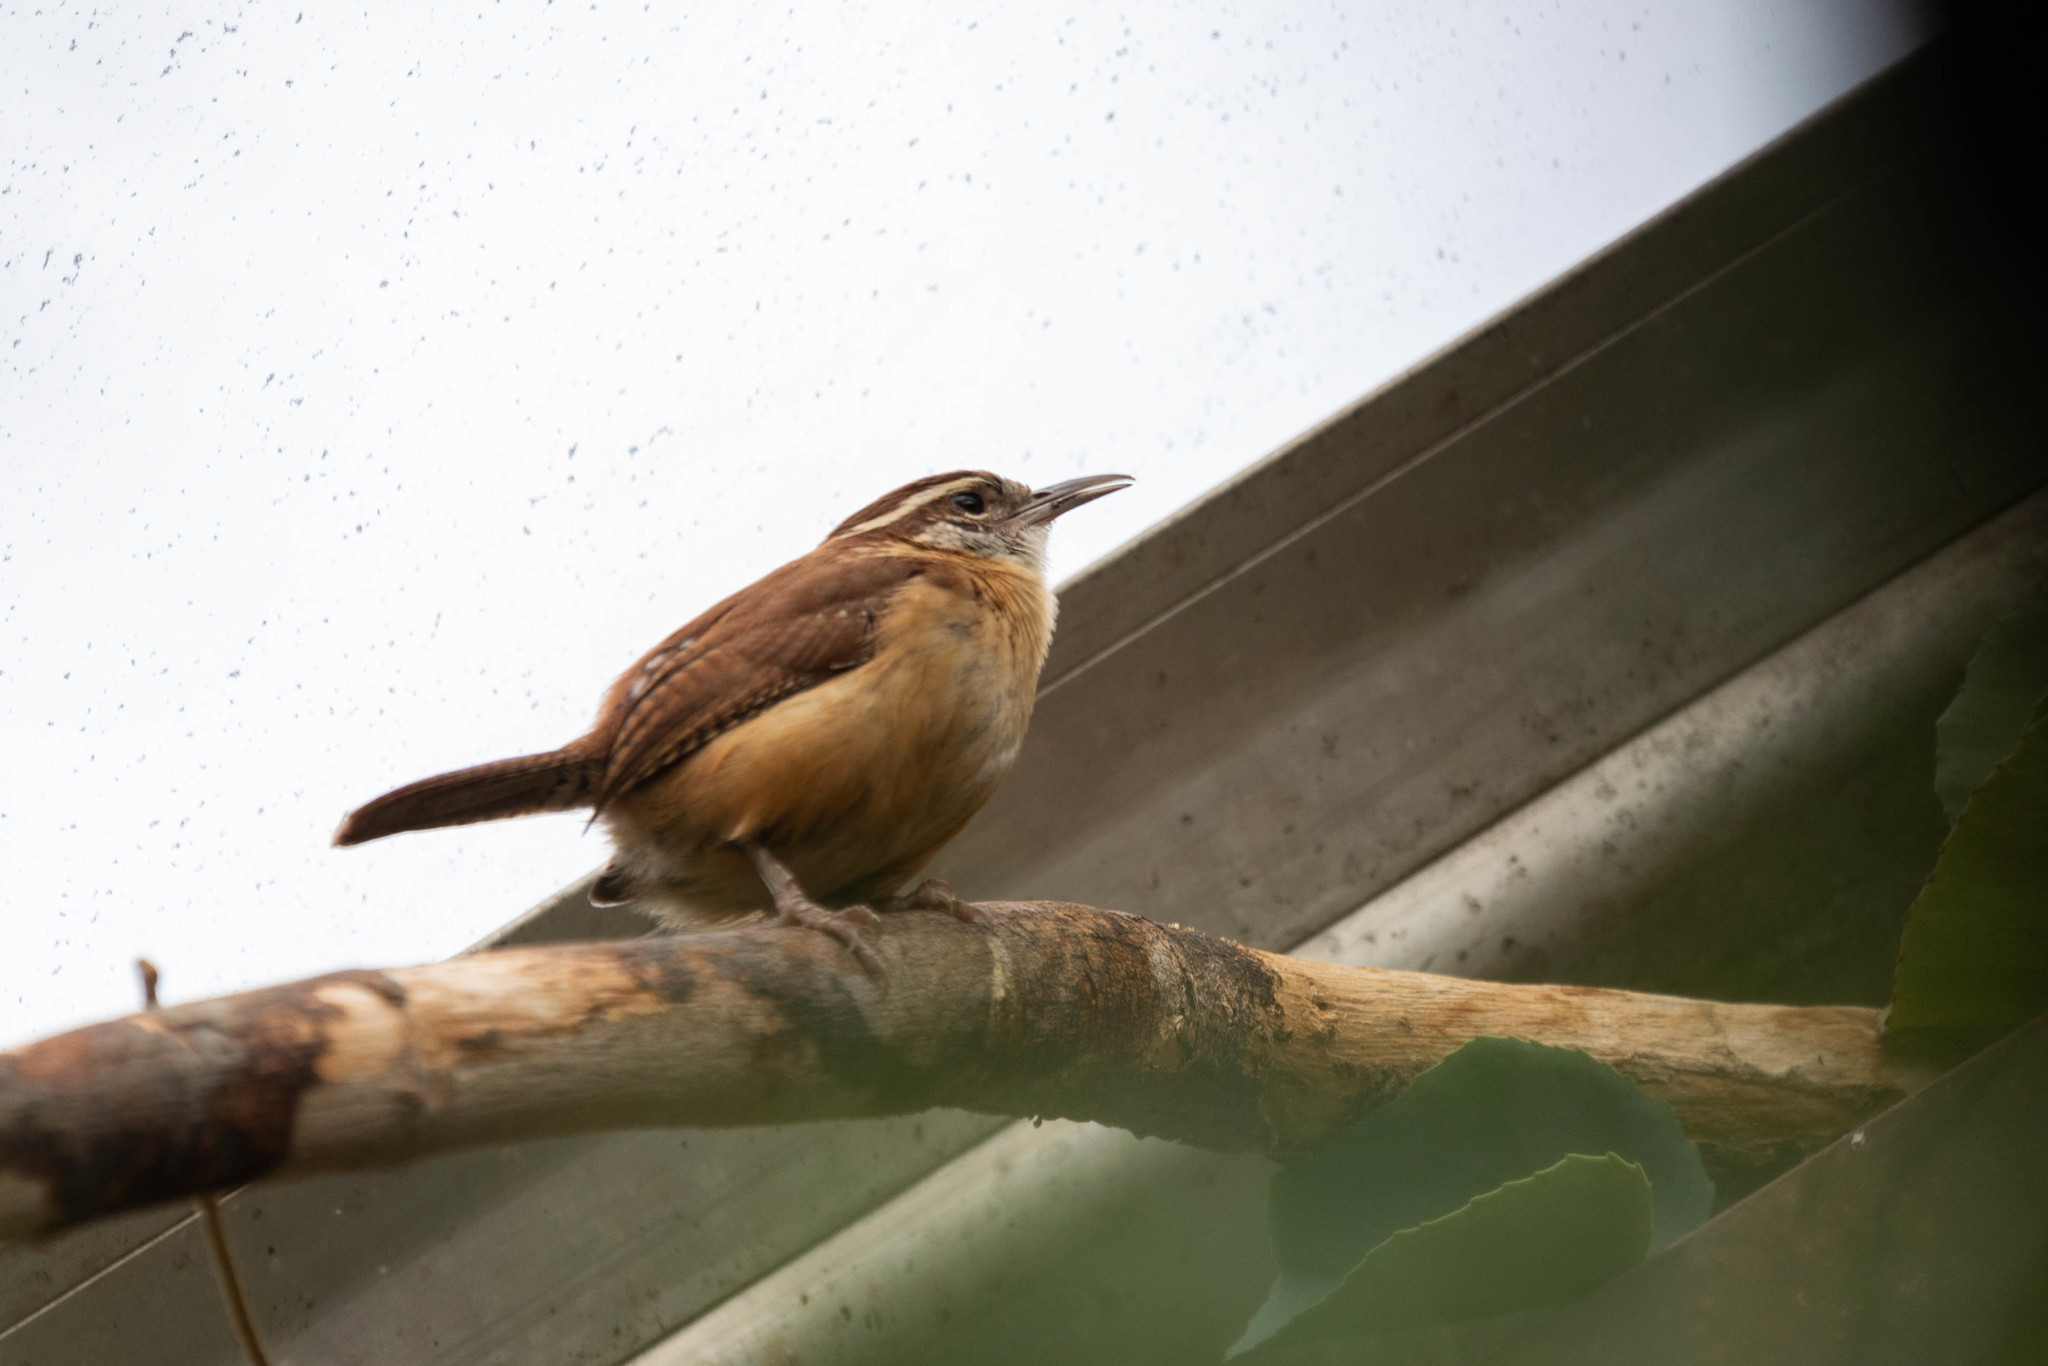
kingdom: Animalia
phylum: Chordata
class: Aves
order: Passeriformes
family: Troglodytidae
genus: Thryothorus
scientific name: Thryothorus ludovicianus
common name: Carolina wren
